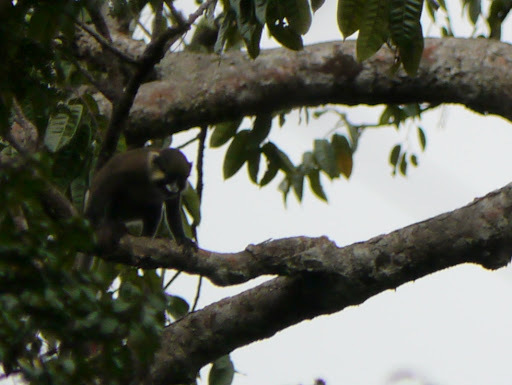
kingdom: Animalia
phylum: Chordata
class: Mammalia
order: Primates
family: Cercopithecidae
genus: Cercopithecus
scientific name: Cercopithecus cephus
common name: Moustached guenon
